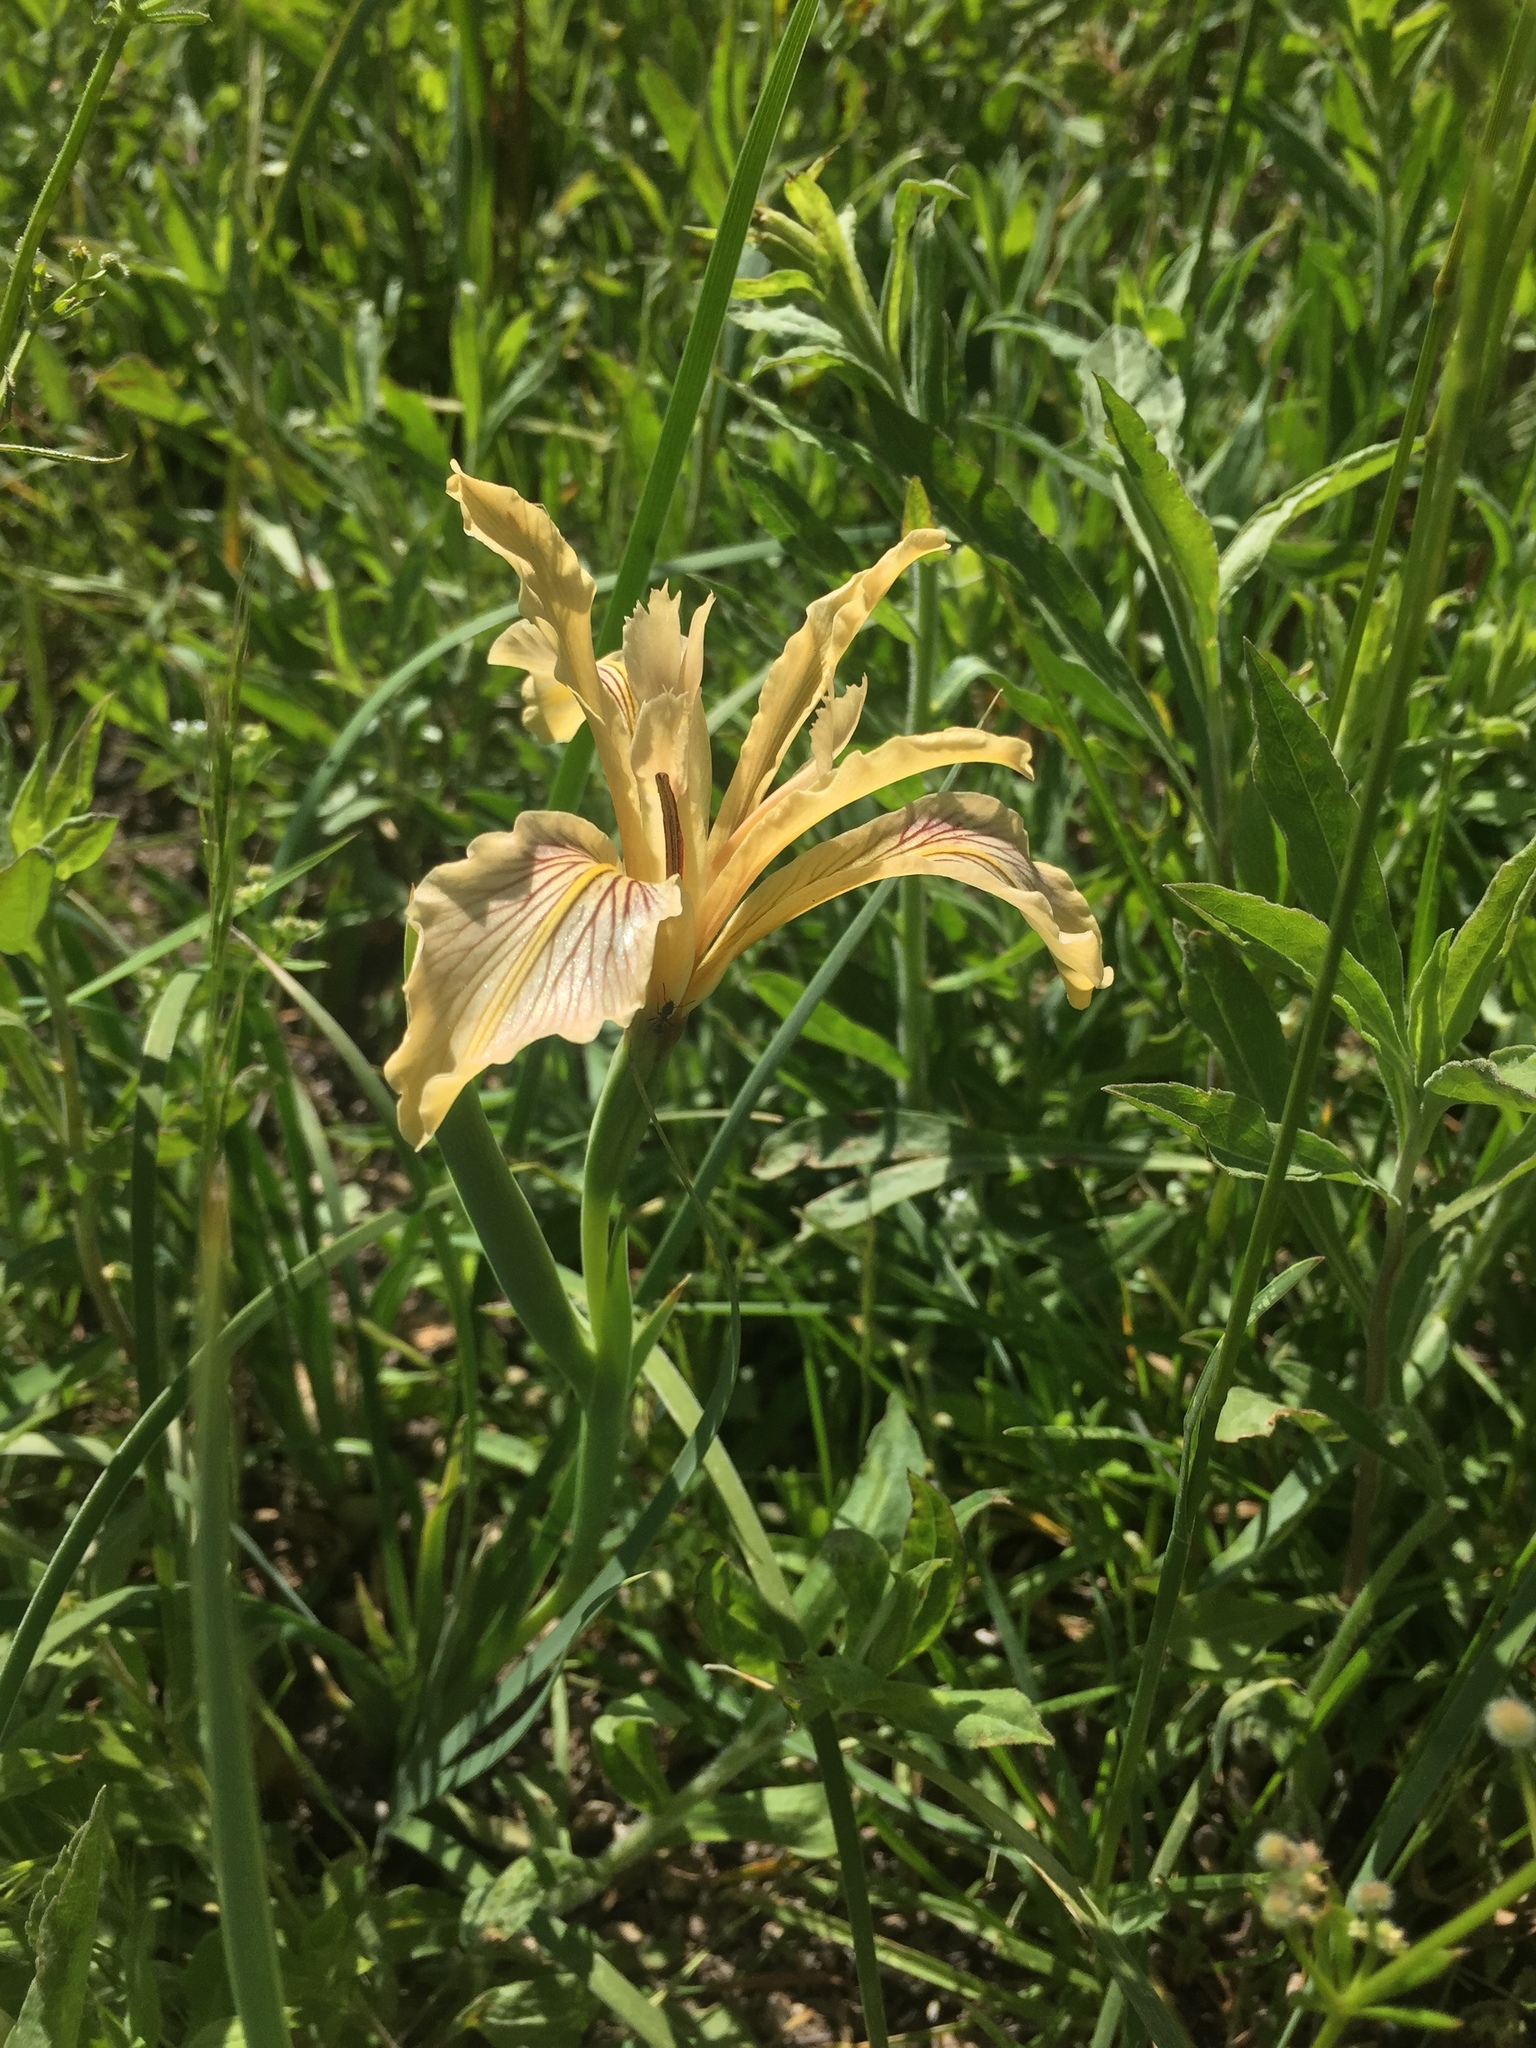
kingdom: Plantae
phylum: Tracheophyta
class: Liliopsida
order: Asparagales
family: Iridaceae
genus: Iris
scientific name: Iris hartwegii
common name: Sierra iris
